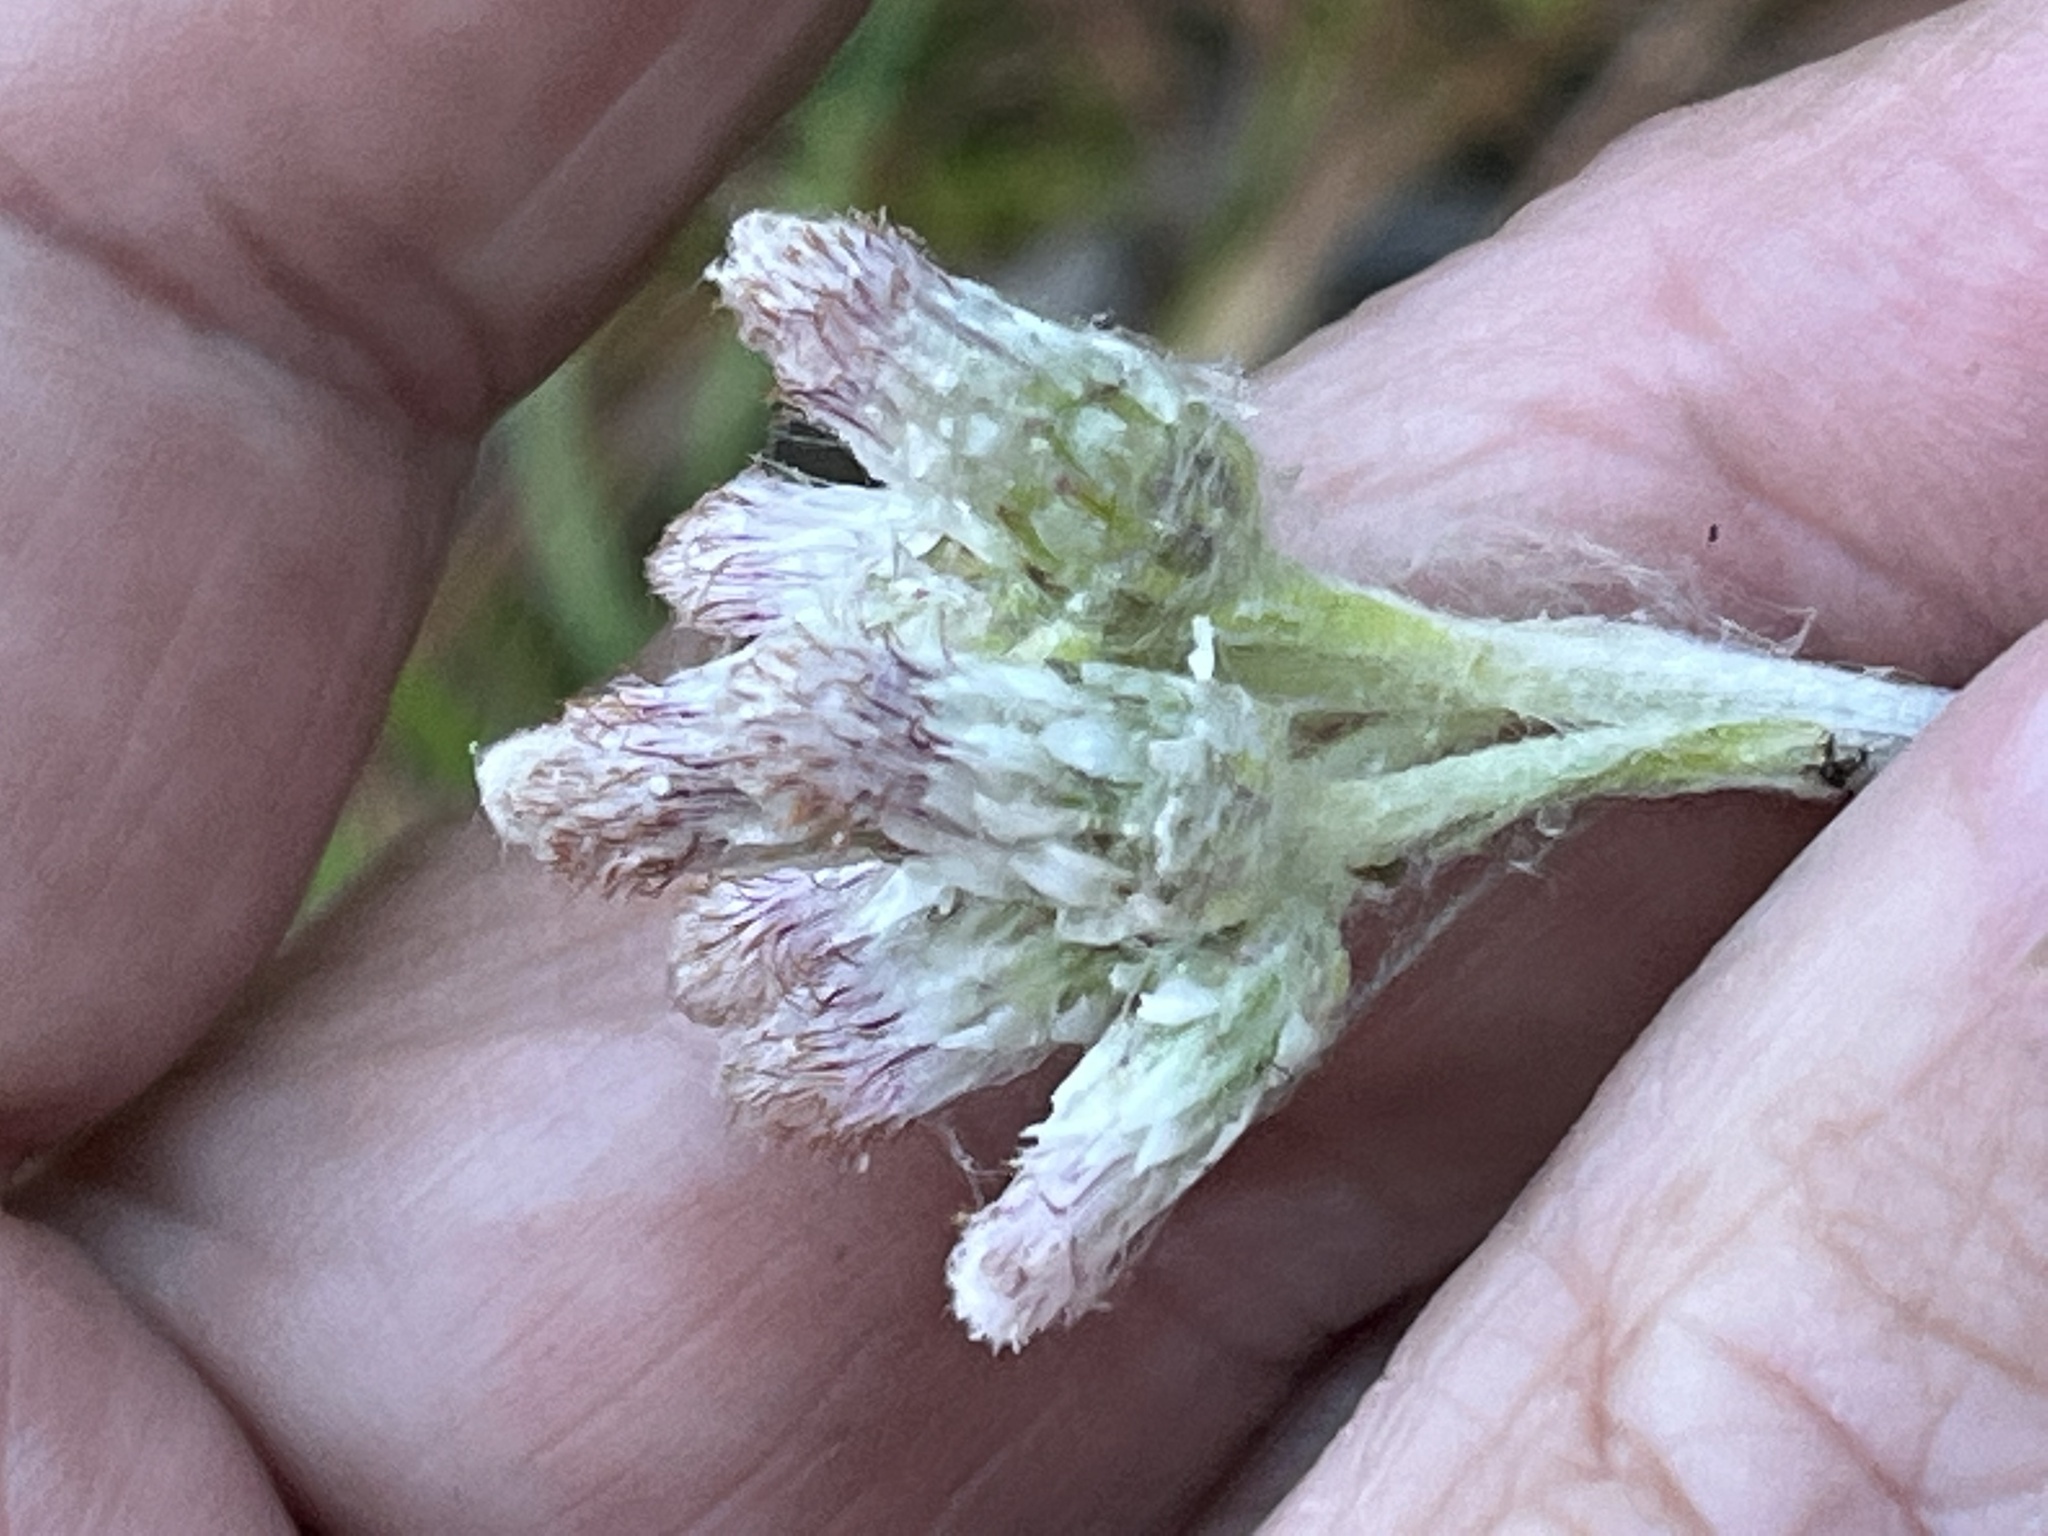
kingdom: Plantae
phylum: Tracheophyta
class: Magnoliopsida
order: Asterales
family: Asteraceae
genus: Antennaria
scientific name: Antennaria parlinii
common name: Parlin's pussytoes
